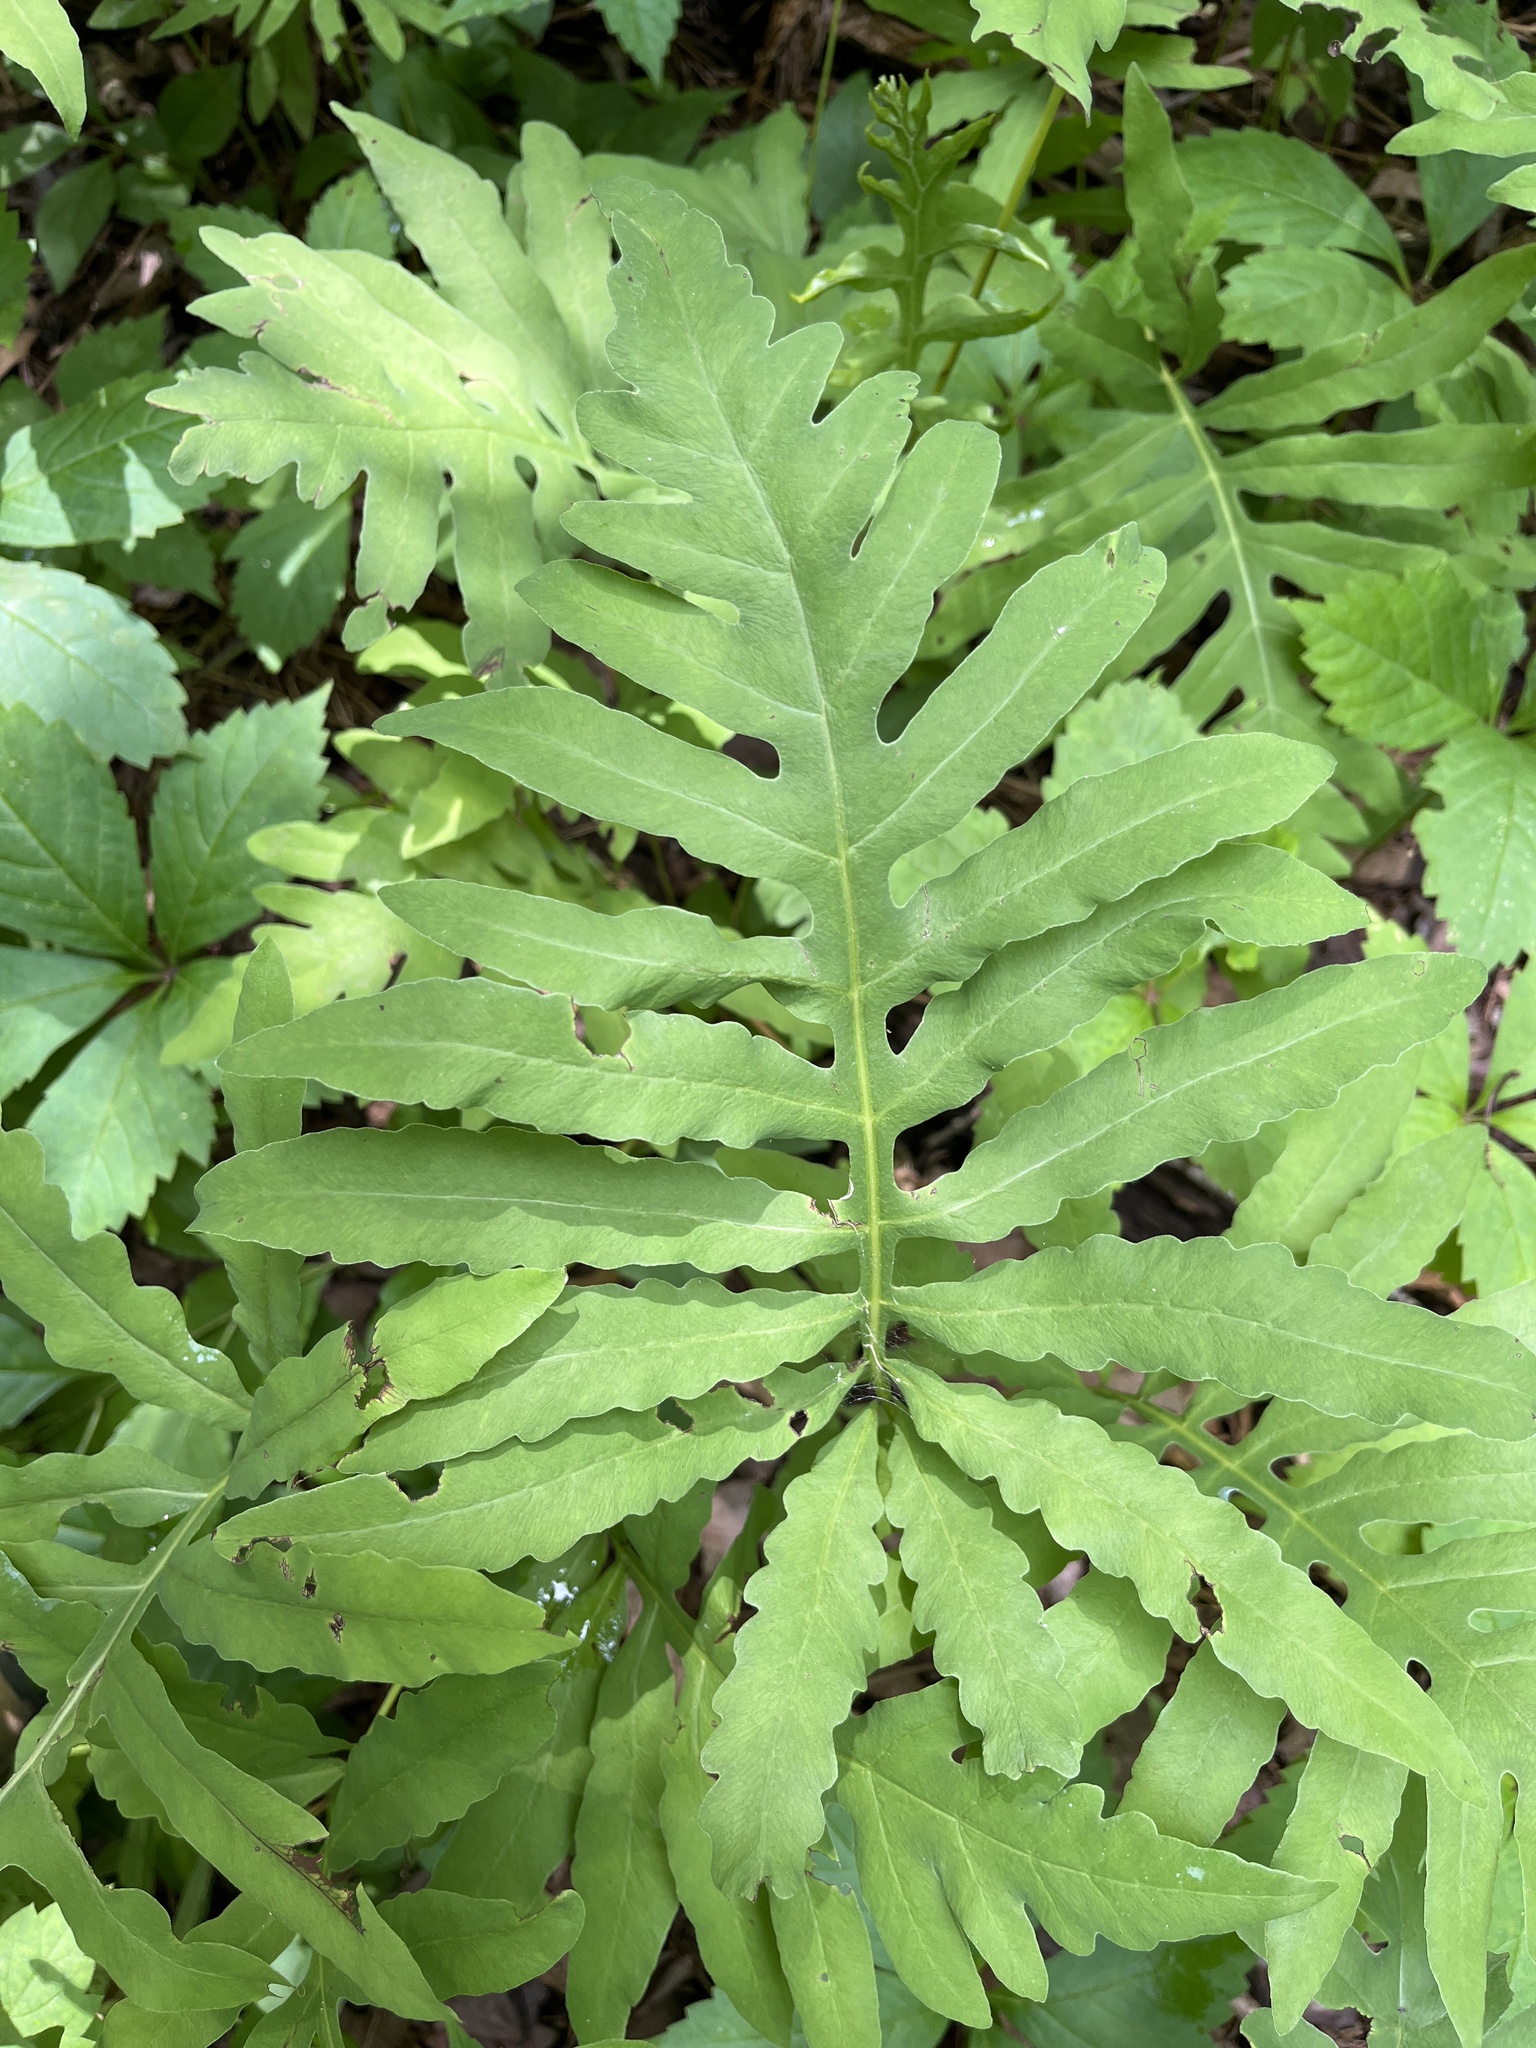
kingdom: Plantae
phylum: Tracheophyta
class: Polypodiopsida
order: Polypodiales
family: Onocleaceae
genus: Onoclea
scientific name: Onoclea sensibilis
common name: Sensitive fern
